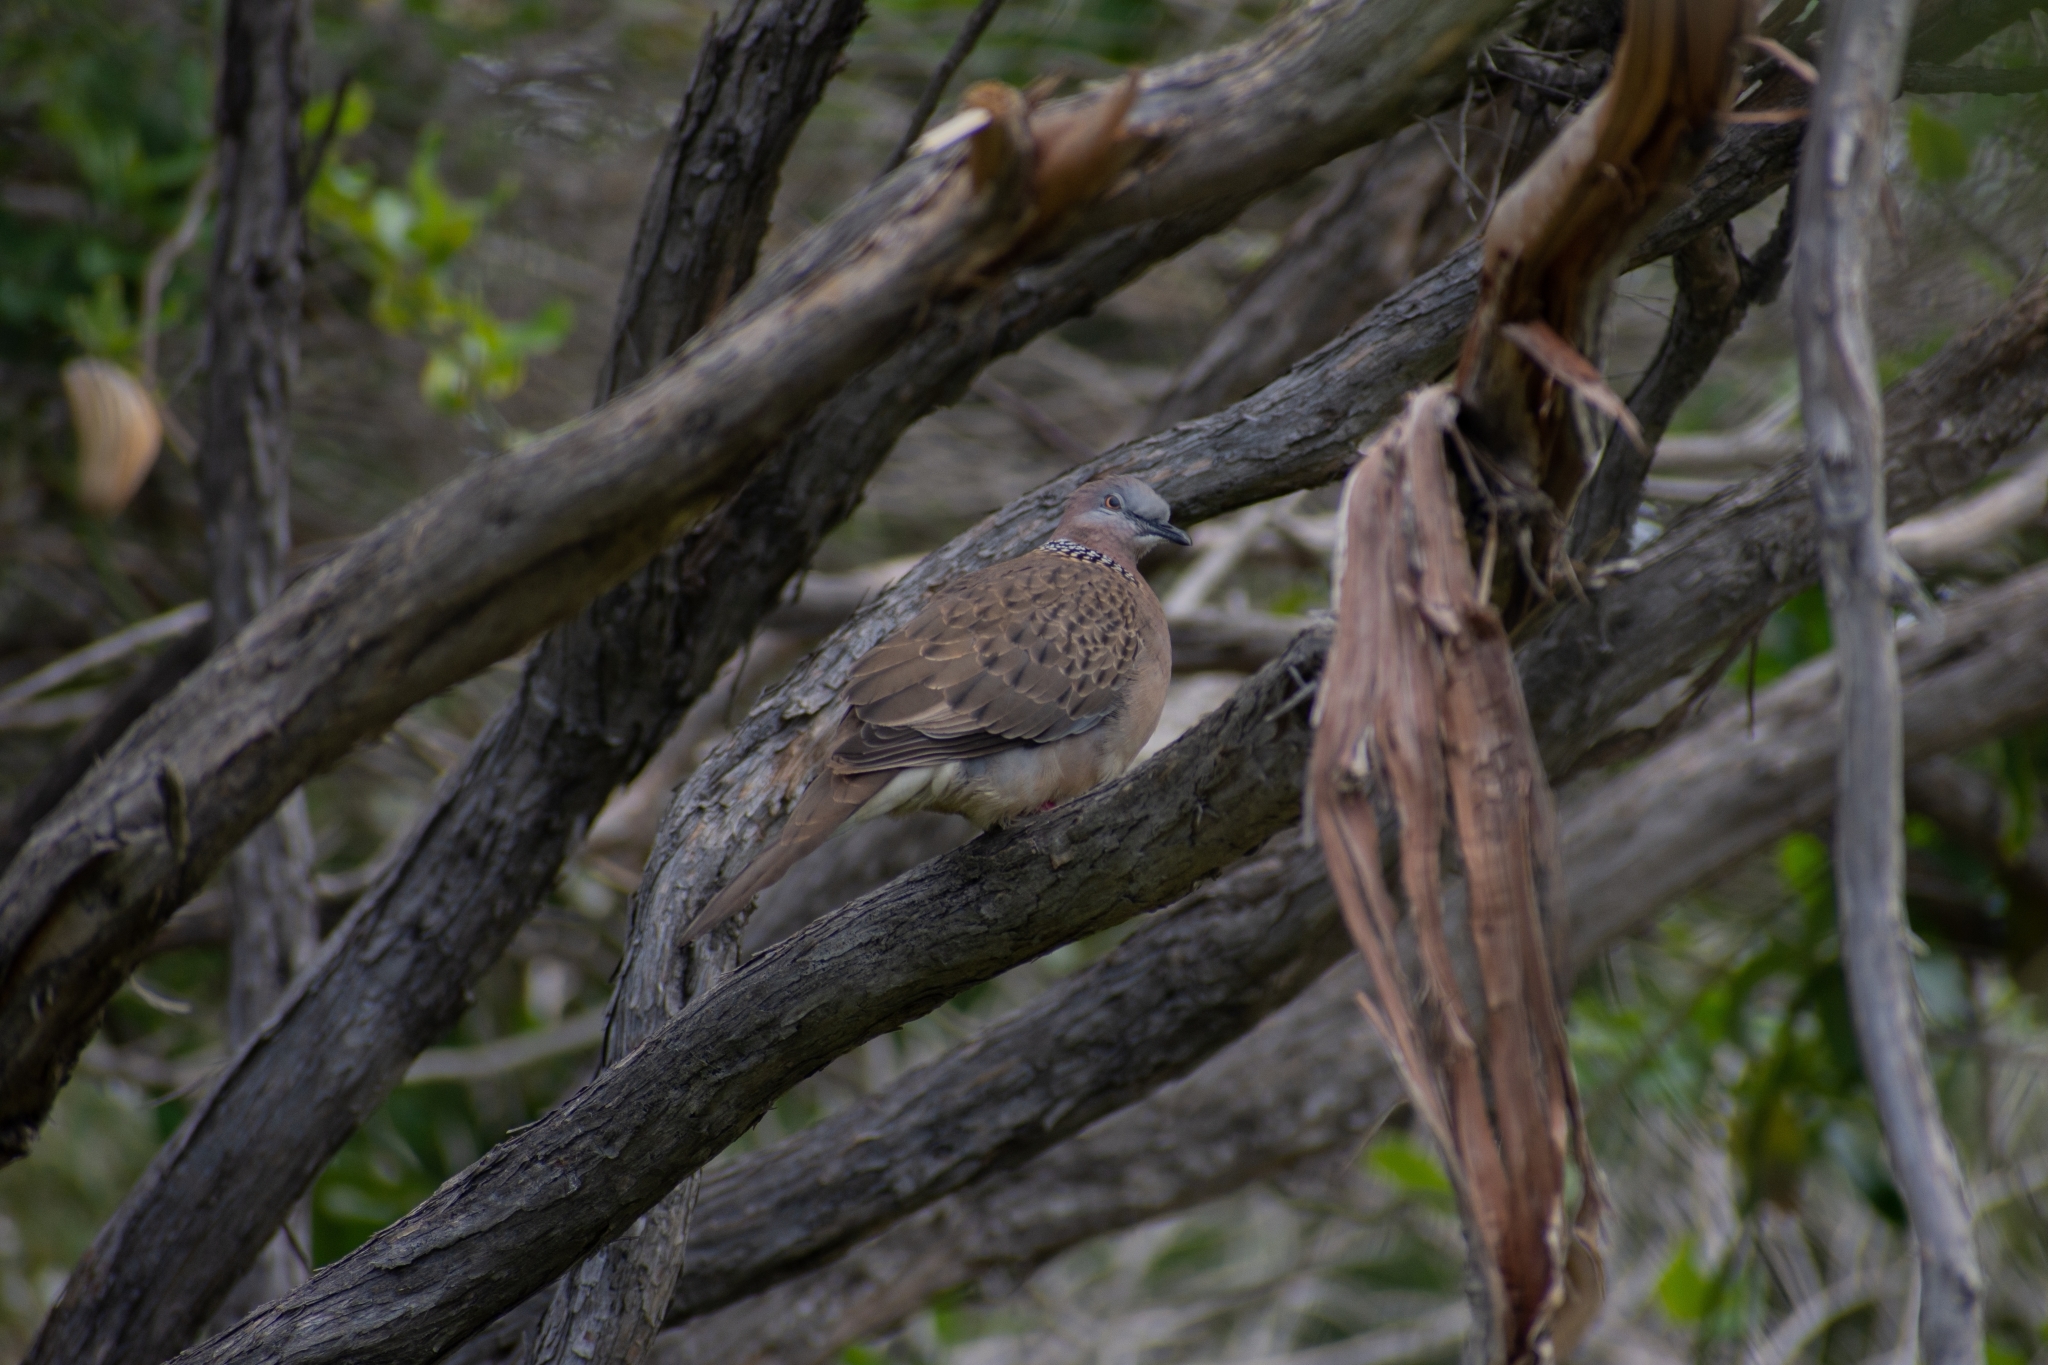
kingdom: Animalia
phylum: Chordata
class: Aves
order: Columbiformes
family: Columbidae
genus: Spilopelia
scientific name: Spilopelia chinensis
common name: Spotted dove
